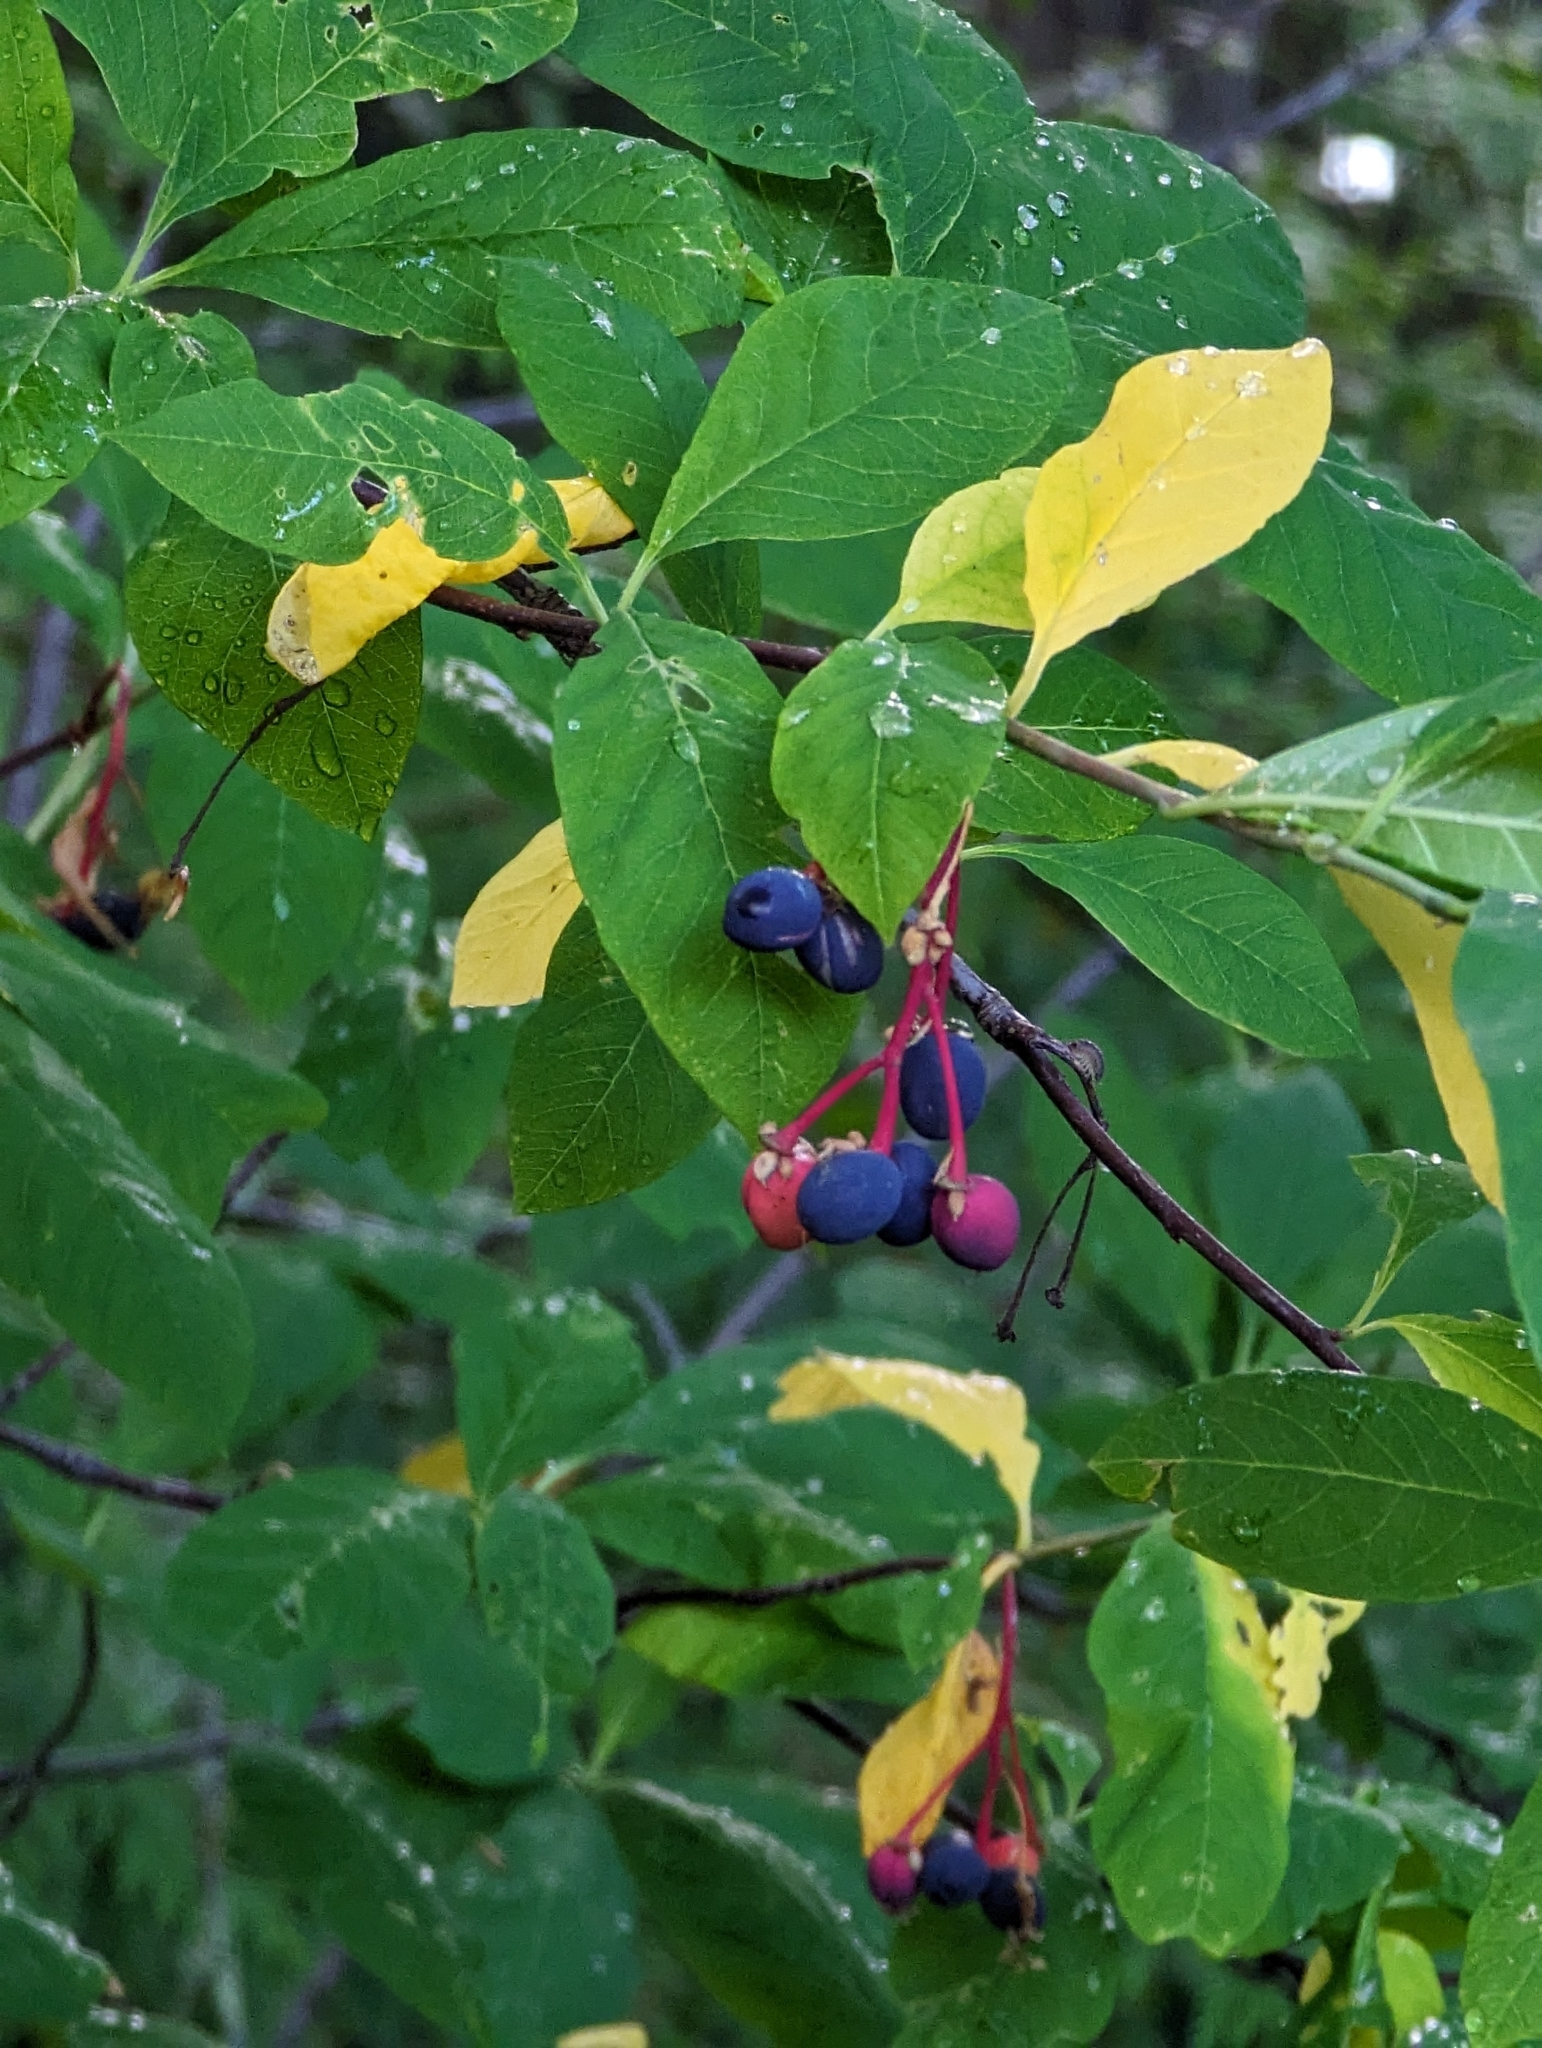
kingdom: Plantae
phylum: Tracheophyta
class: Magnoliopsida
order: Rosales
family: Rosaceae
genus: Oemleria
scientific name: Oemleria cerasiformis
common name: Osoberry
